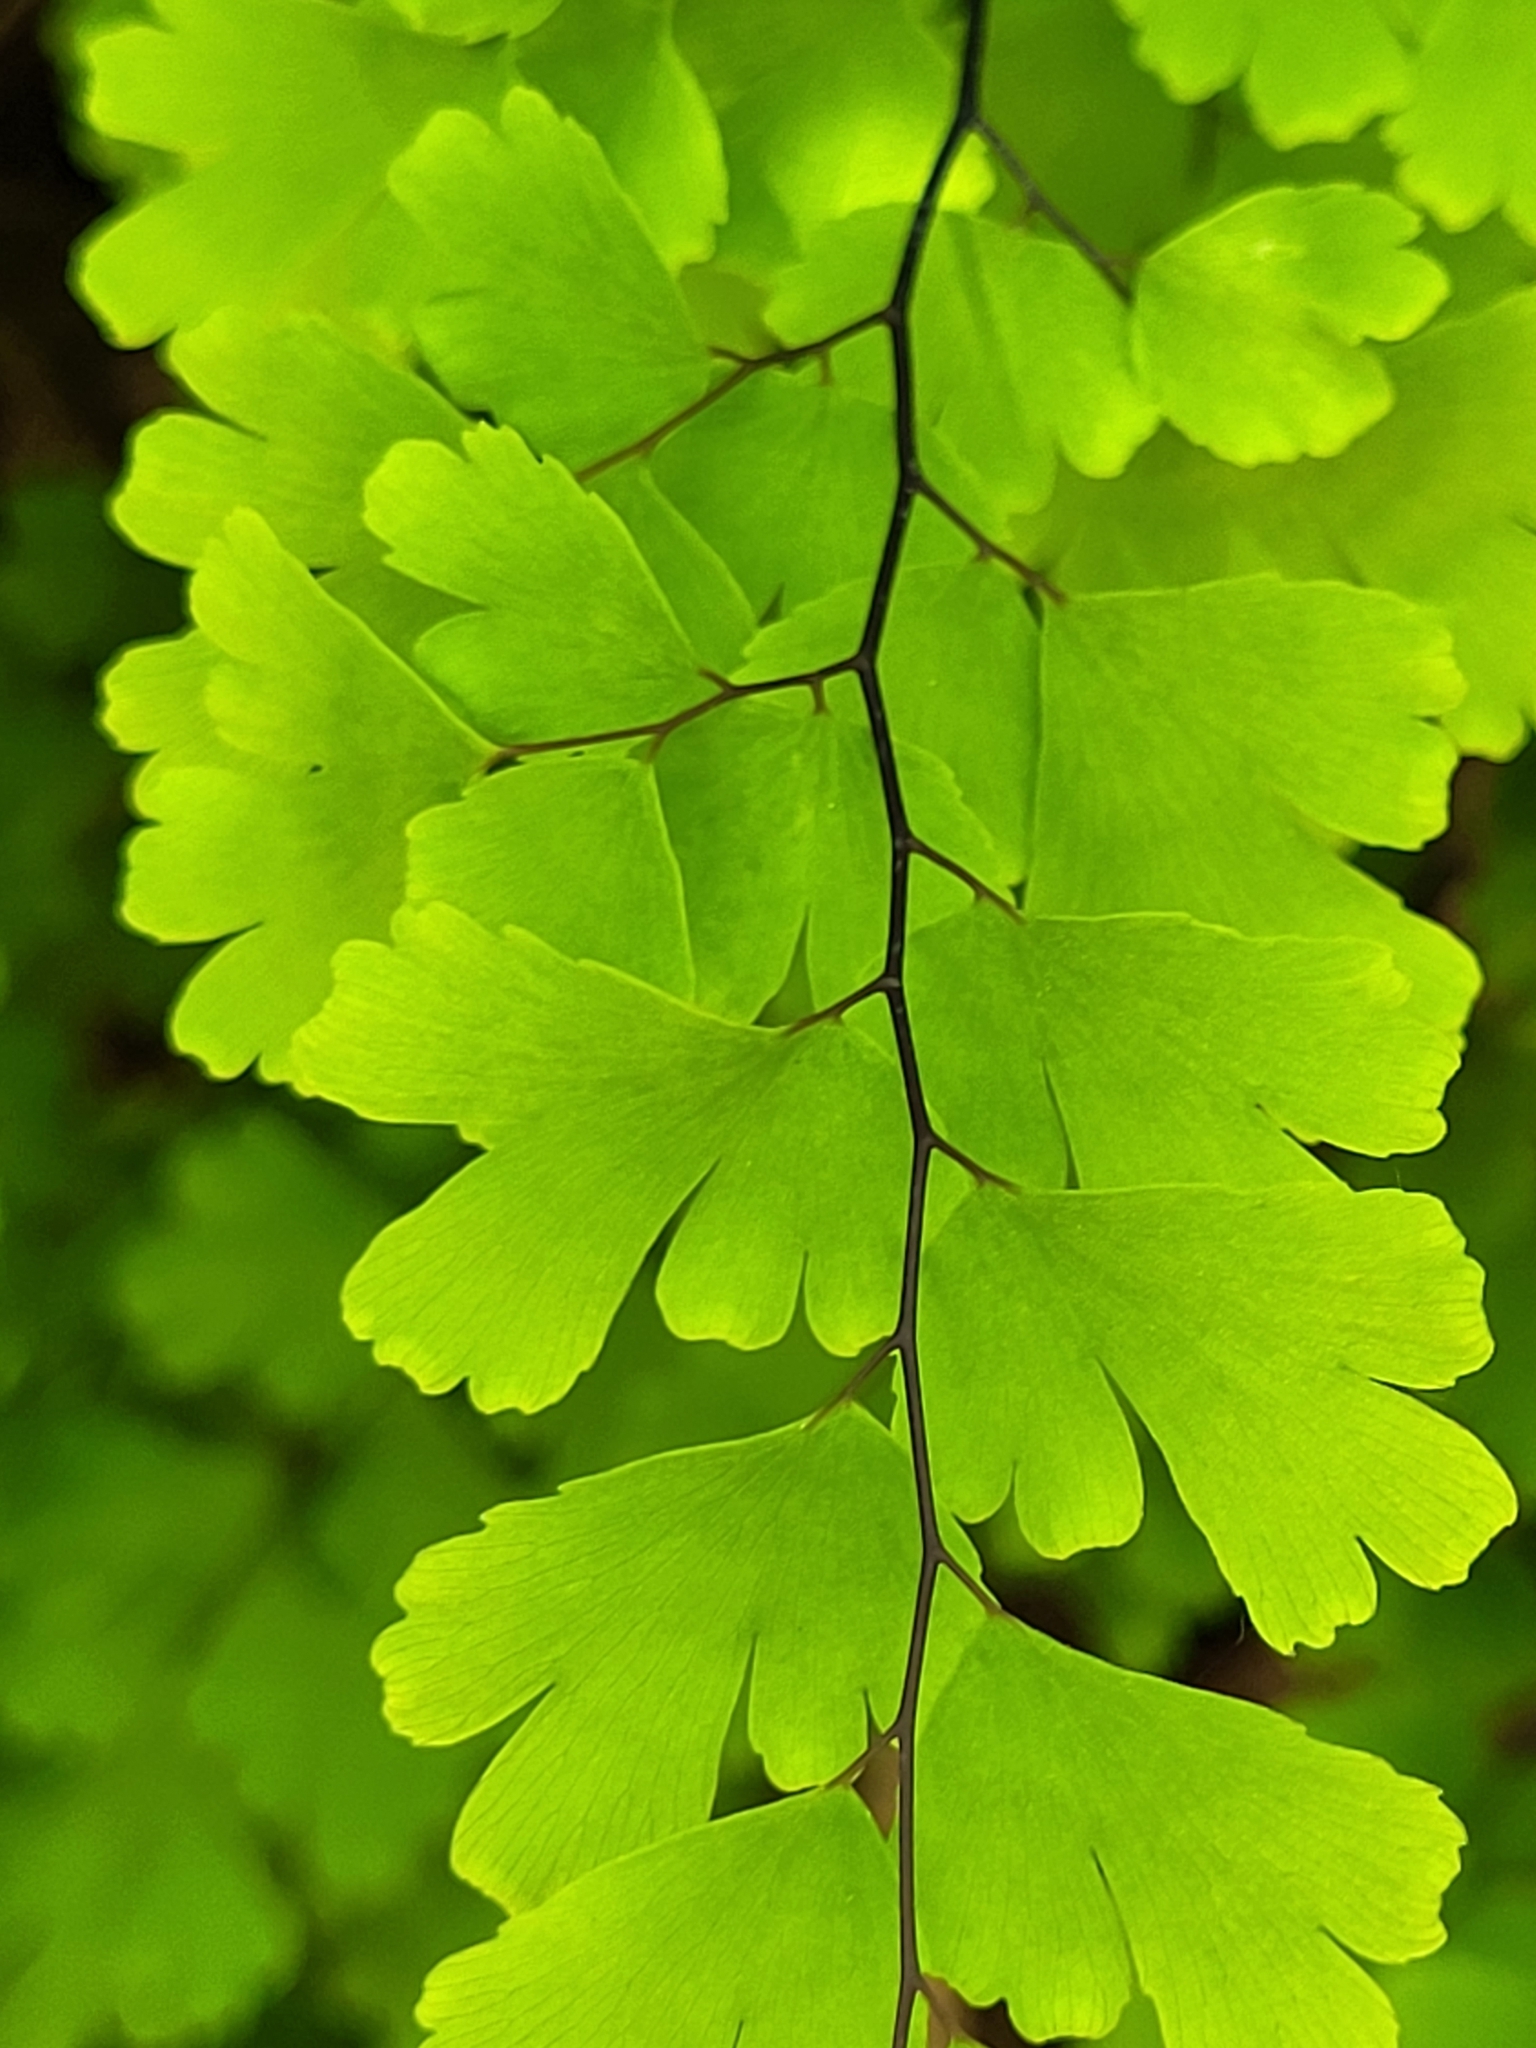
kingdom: Plantae
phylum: Tracheophyta
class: Polypodiopsida
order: Polypodiales
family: Pteridaceae
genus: Adiantum
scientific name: Adiantum capillus-veneris
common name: Maidenhair fern
